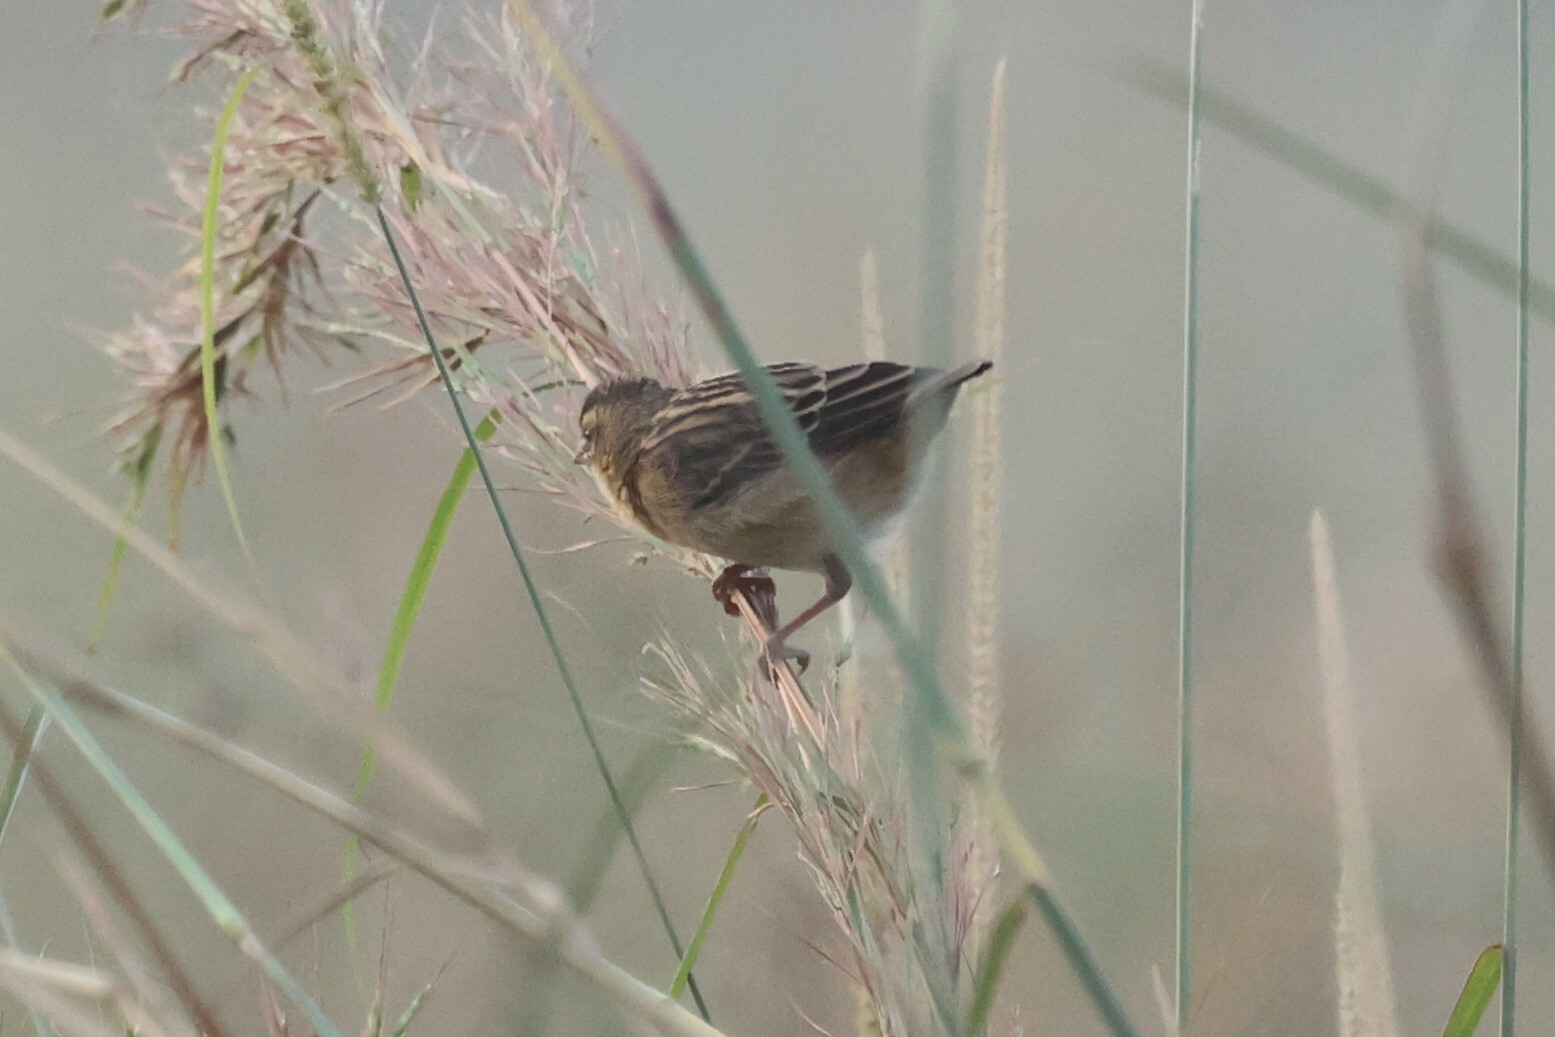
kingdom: Animalia
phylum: Chordata
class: Aves
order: Passeriformes
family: Ploceidae
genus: Euplectes
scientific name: Euplectes franciscanus
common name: Northern red bishop
